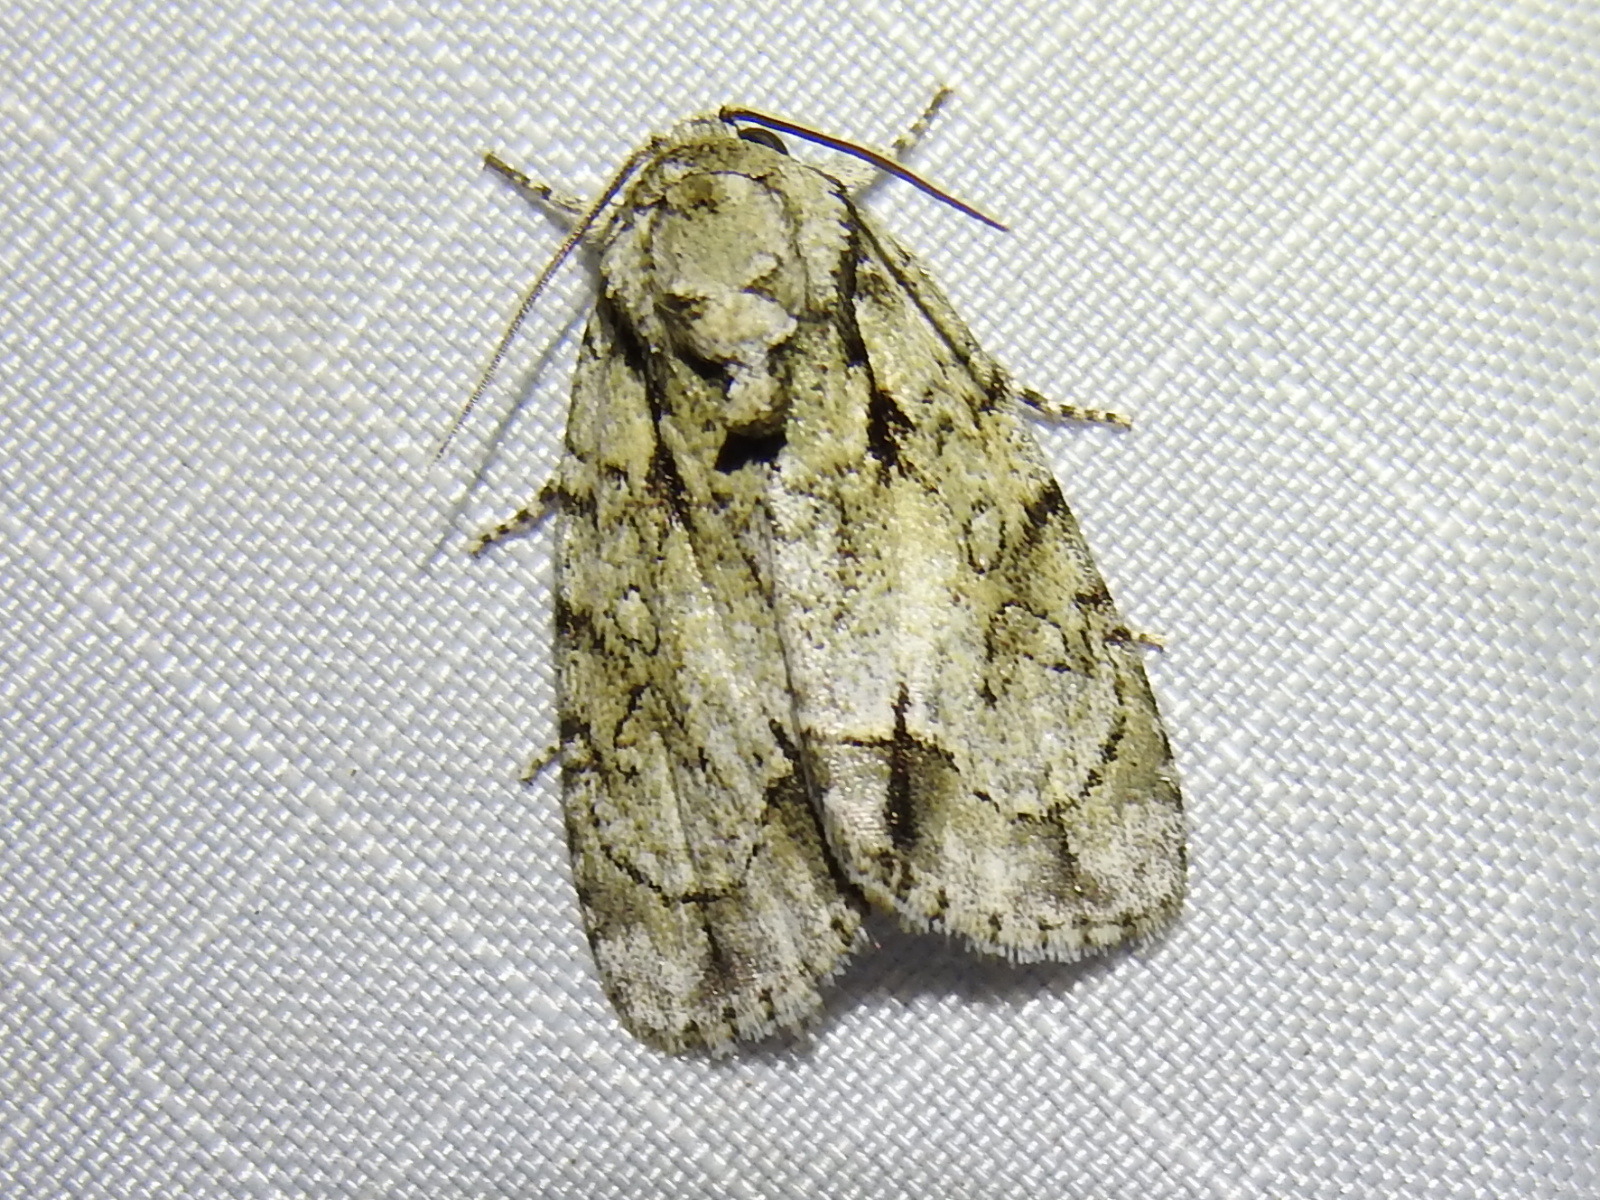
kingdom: Animalia
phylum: Arthropoda
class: Insecta
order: Lepidoptera
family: Noctuidae
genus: Acronicta
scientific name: Acronicta vinnula
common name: Delightful dagger
